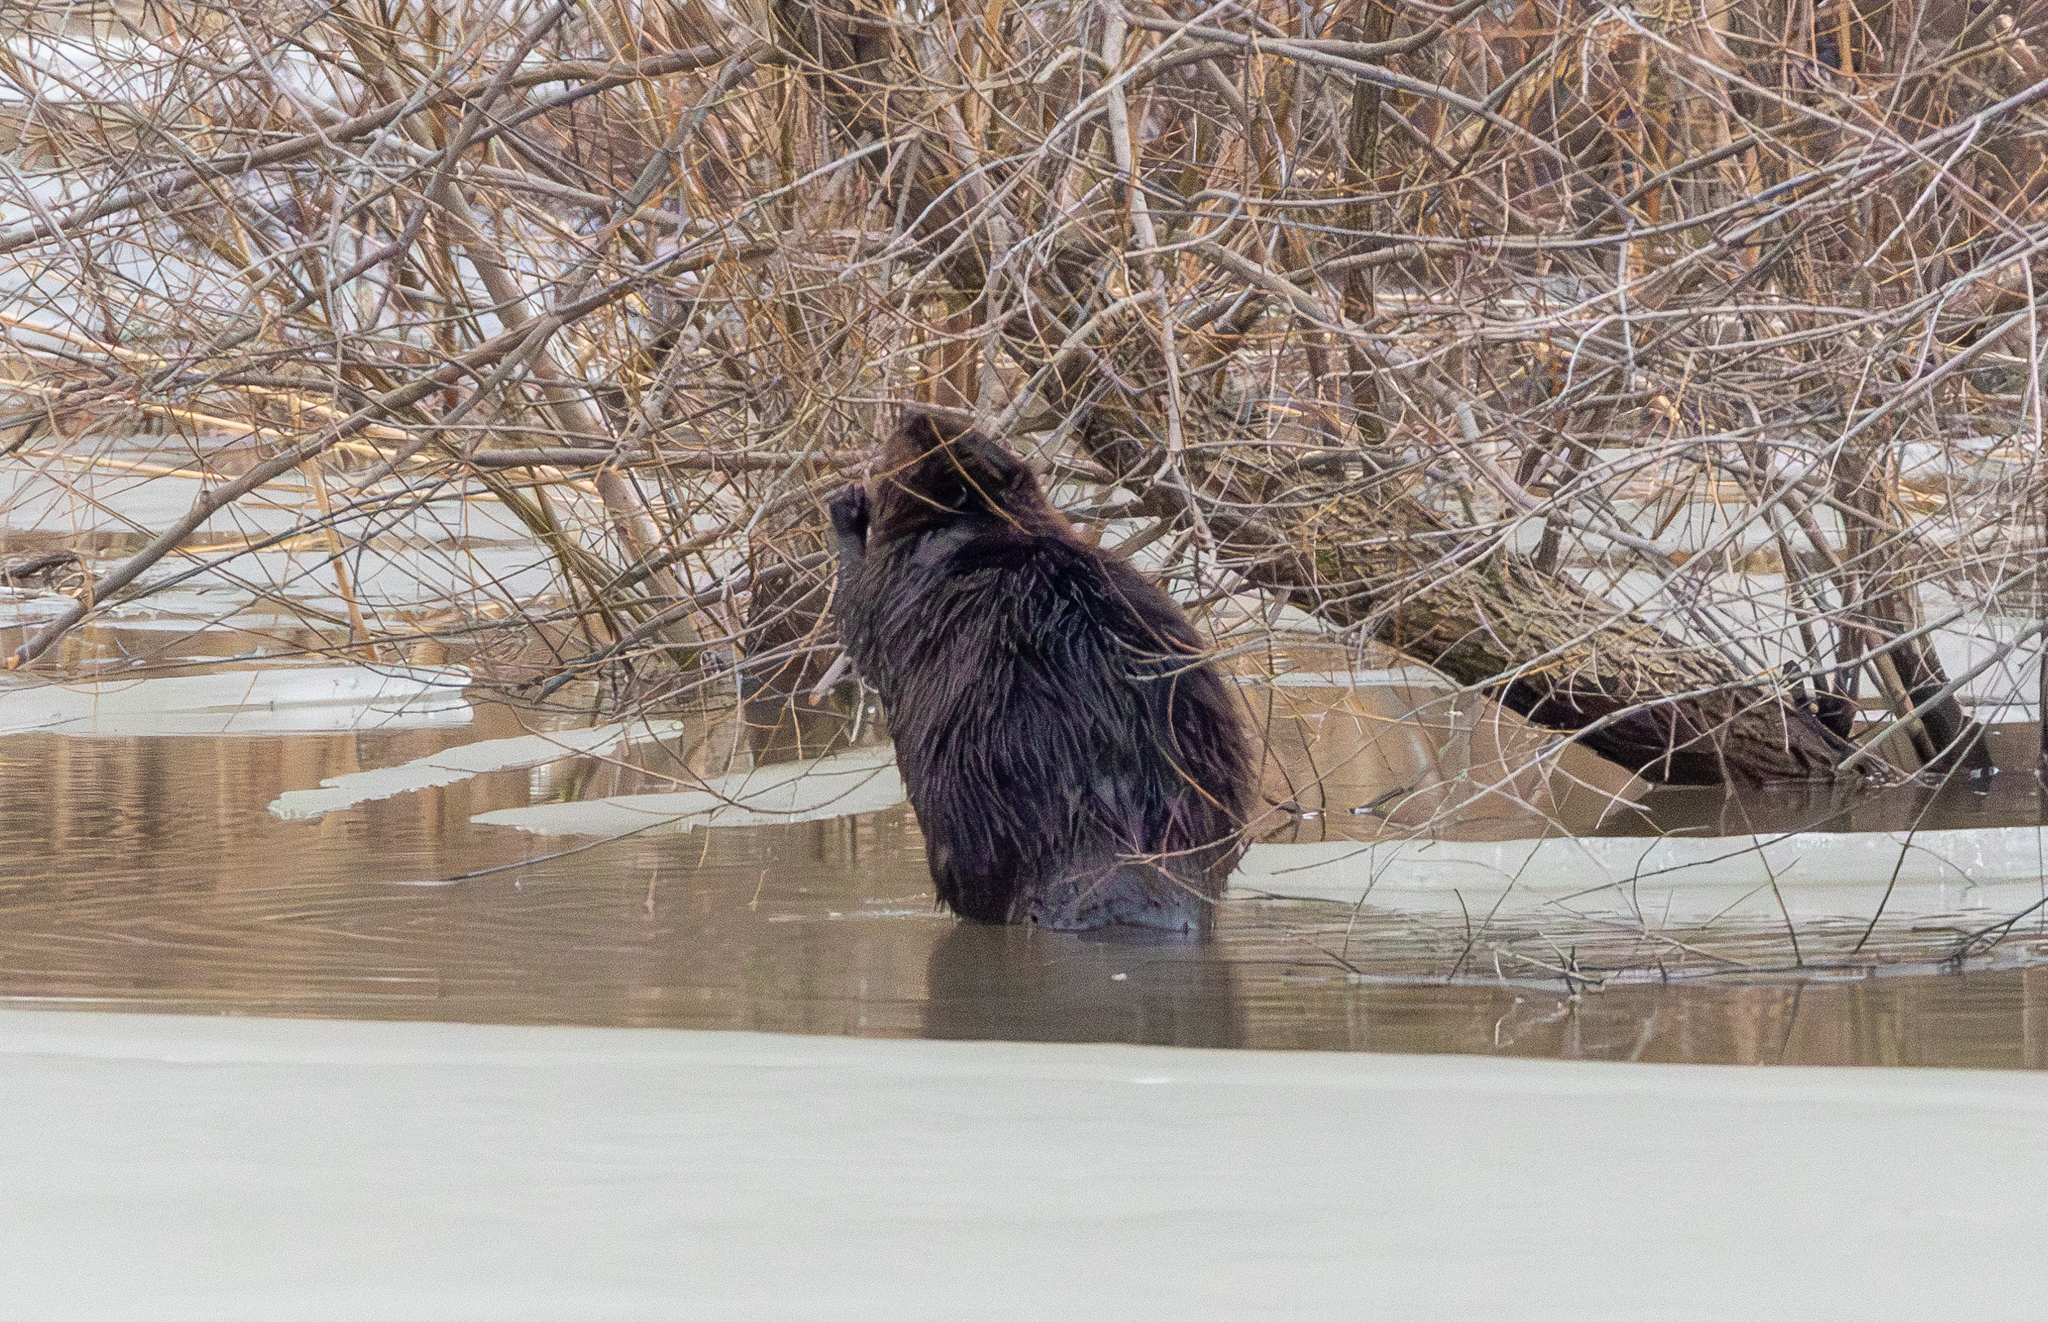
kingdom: Animalia
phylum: Chordata
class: Mammalia
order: Rodentia
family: Castoridae
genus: Castor
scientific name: Castor canadensis
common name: American beaver
